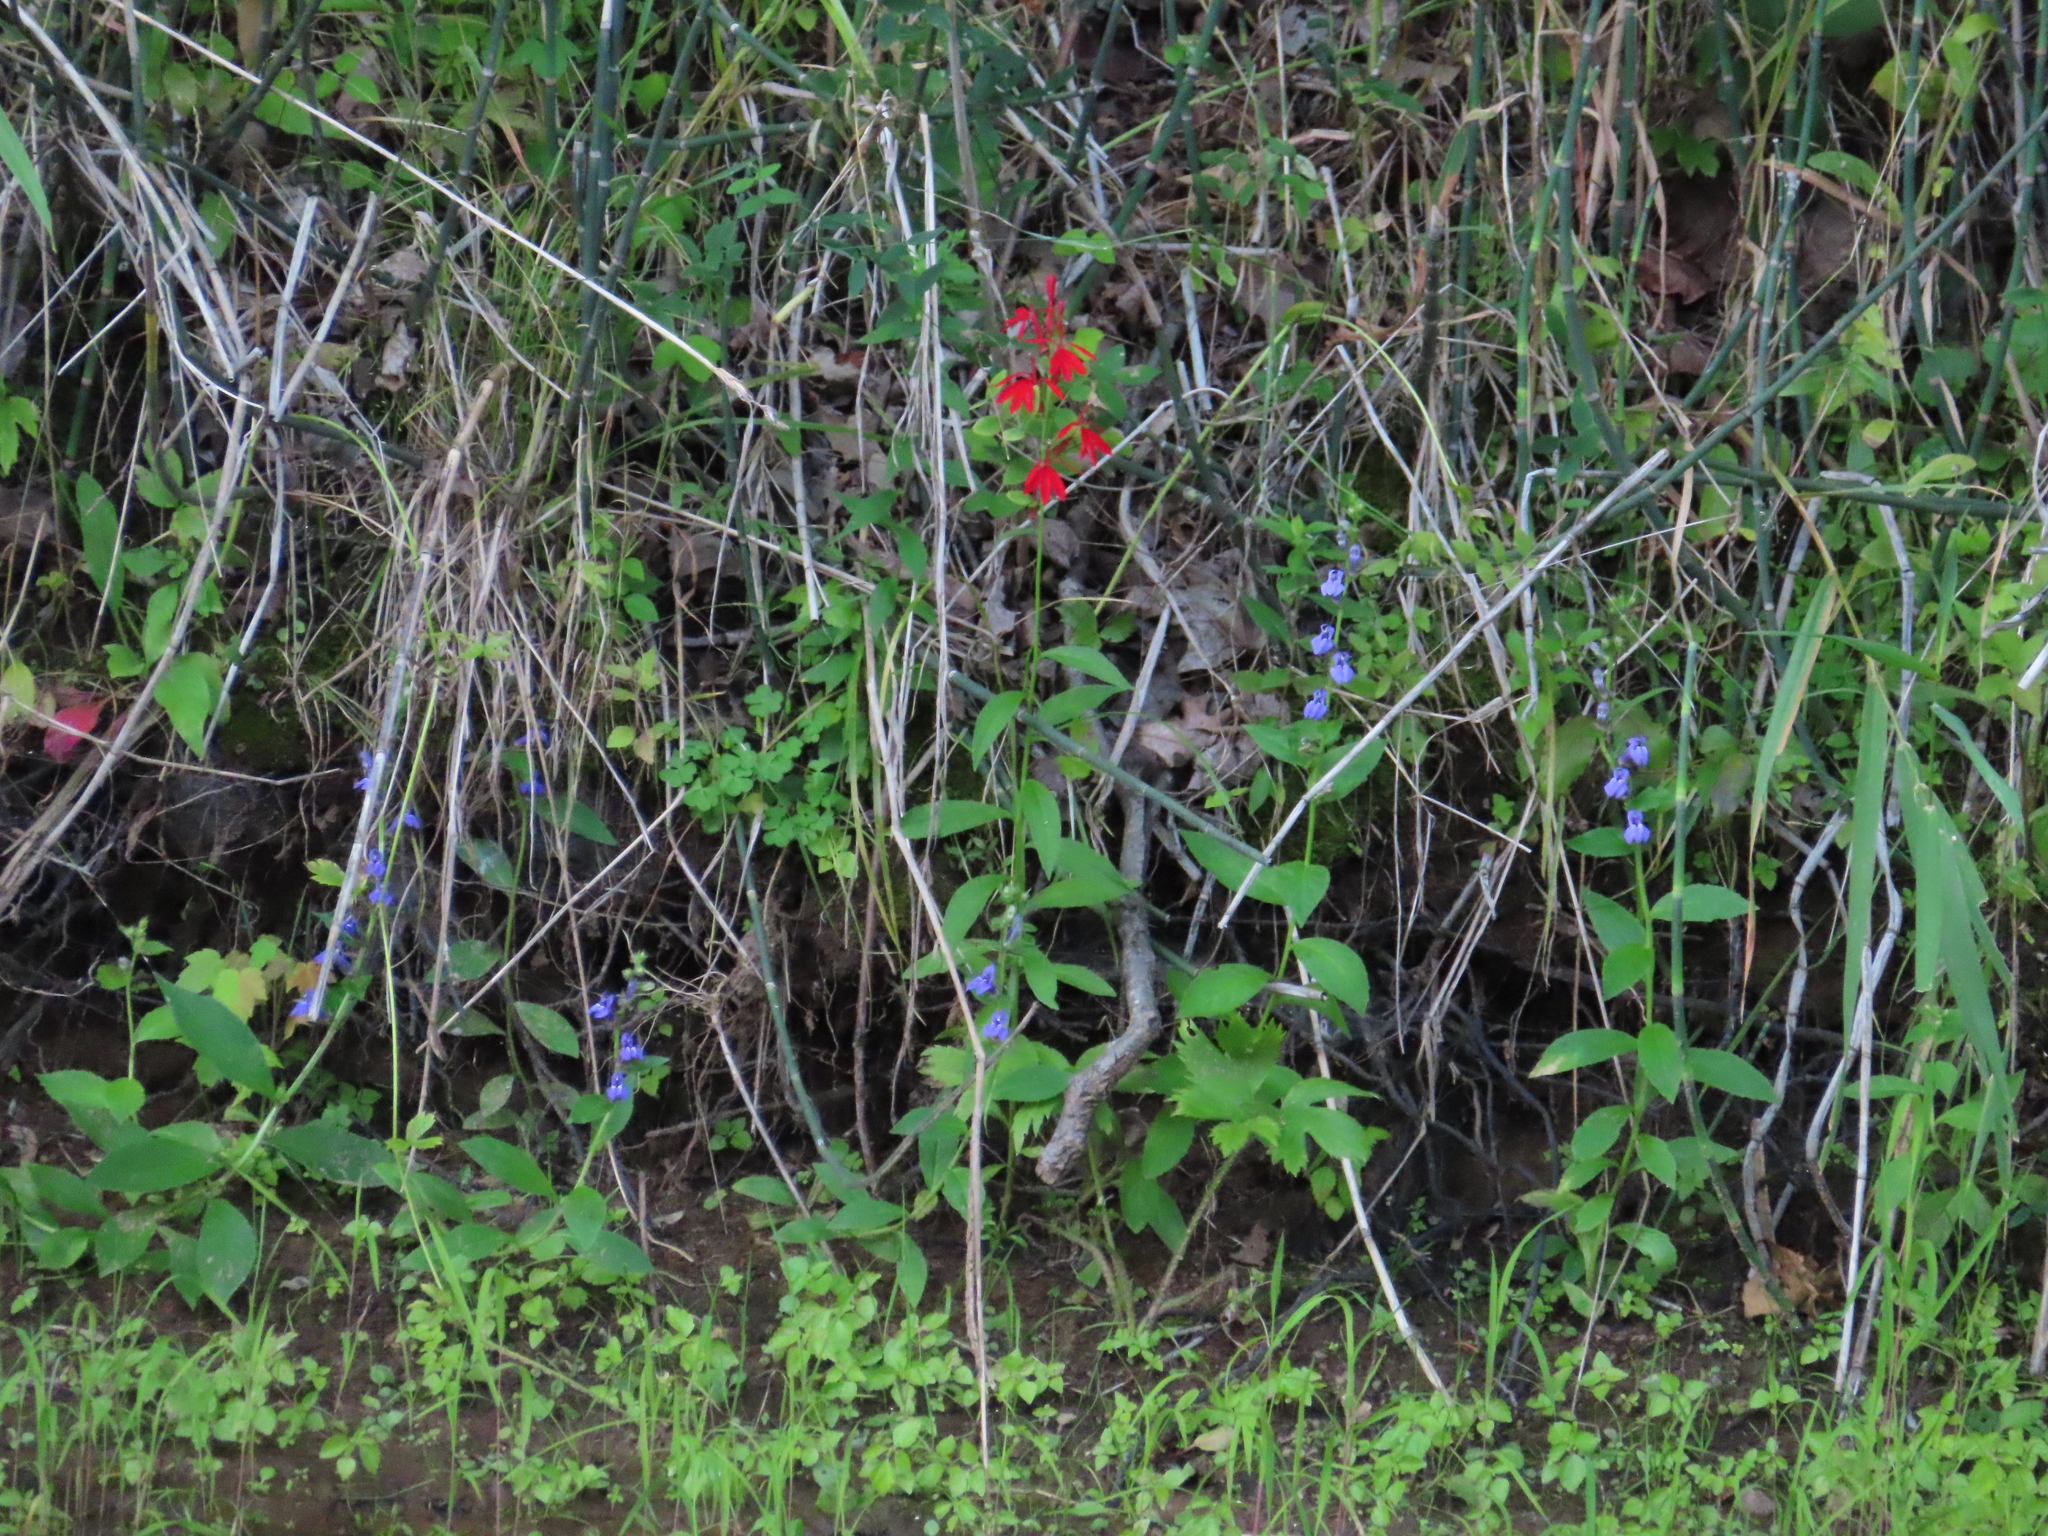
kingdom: Plantae
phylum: Tracheophyta
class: Magnoliopsida
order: Asterales
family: Campanulaceae
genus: Lobelia
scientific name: Lobelia cardinalis
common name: Cardinal flower
